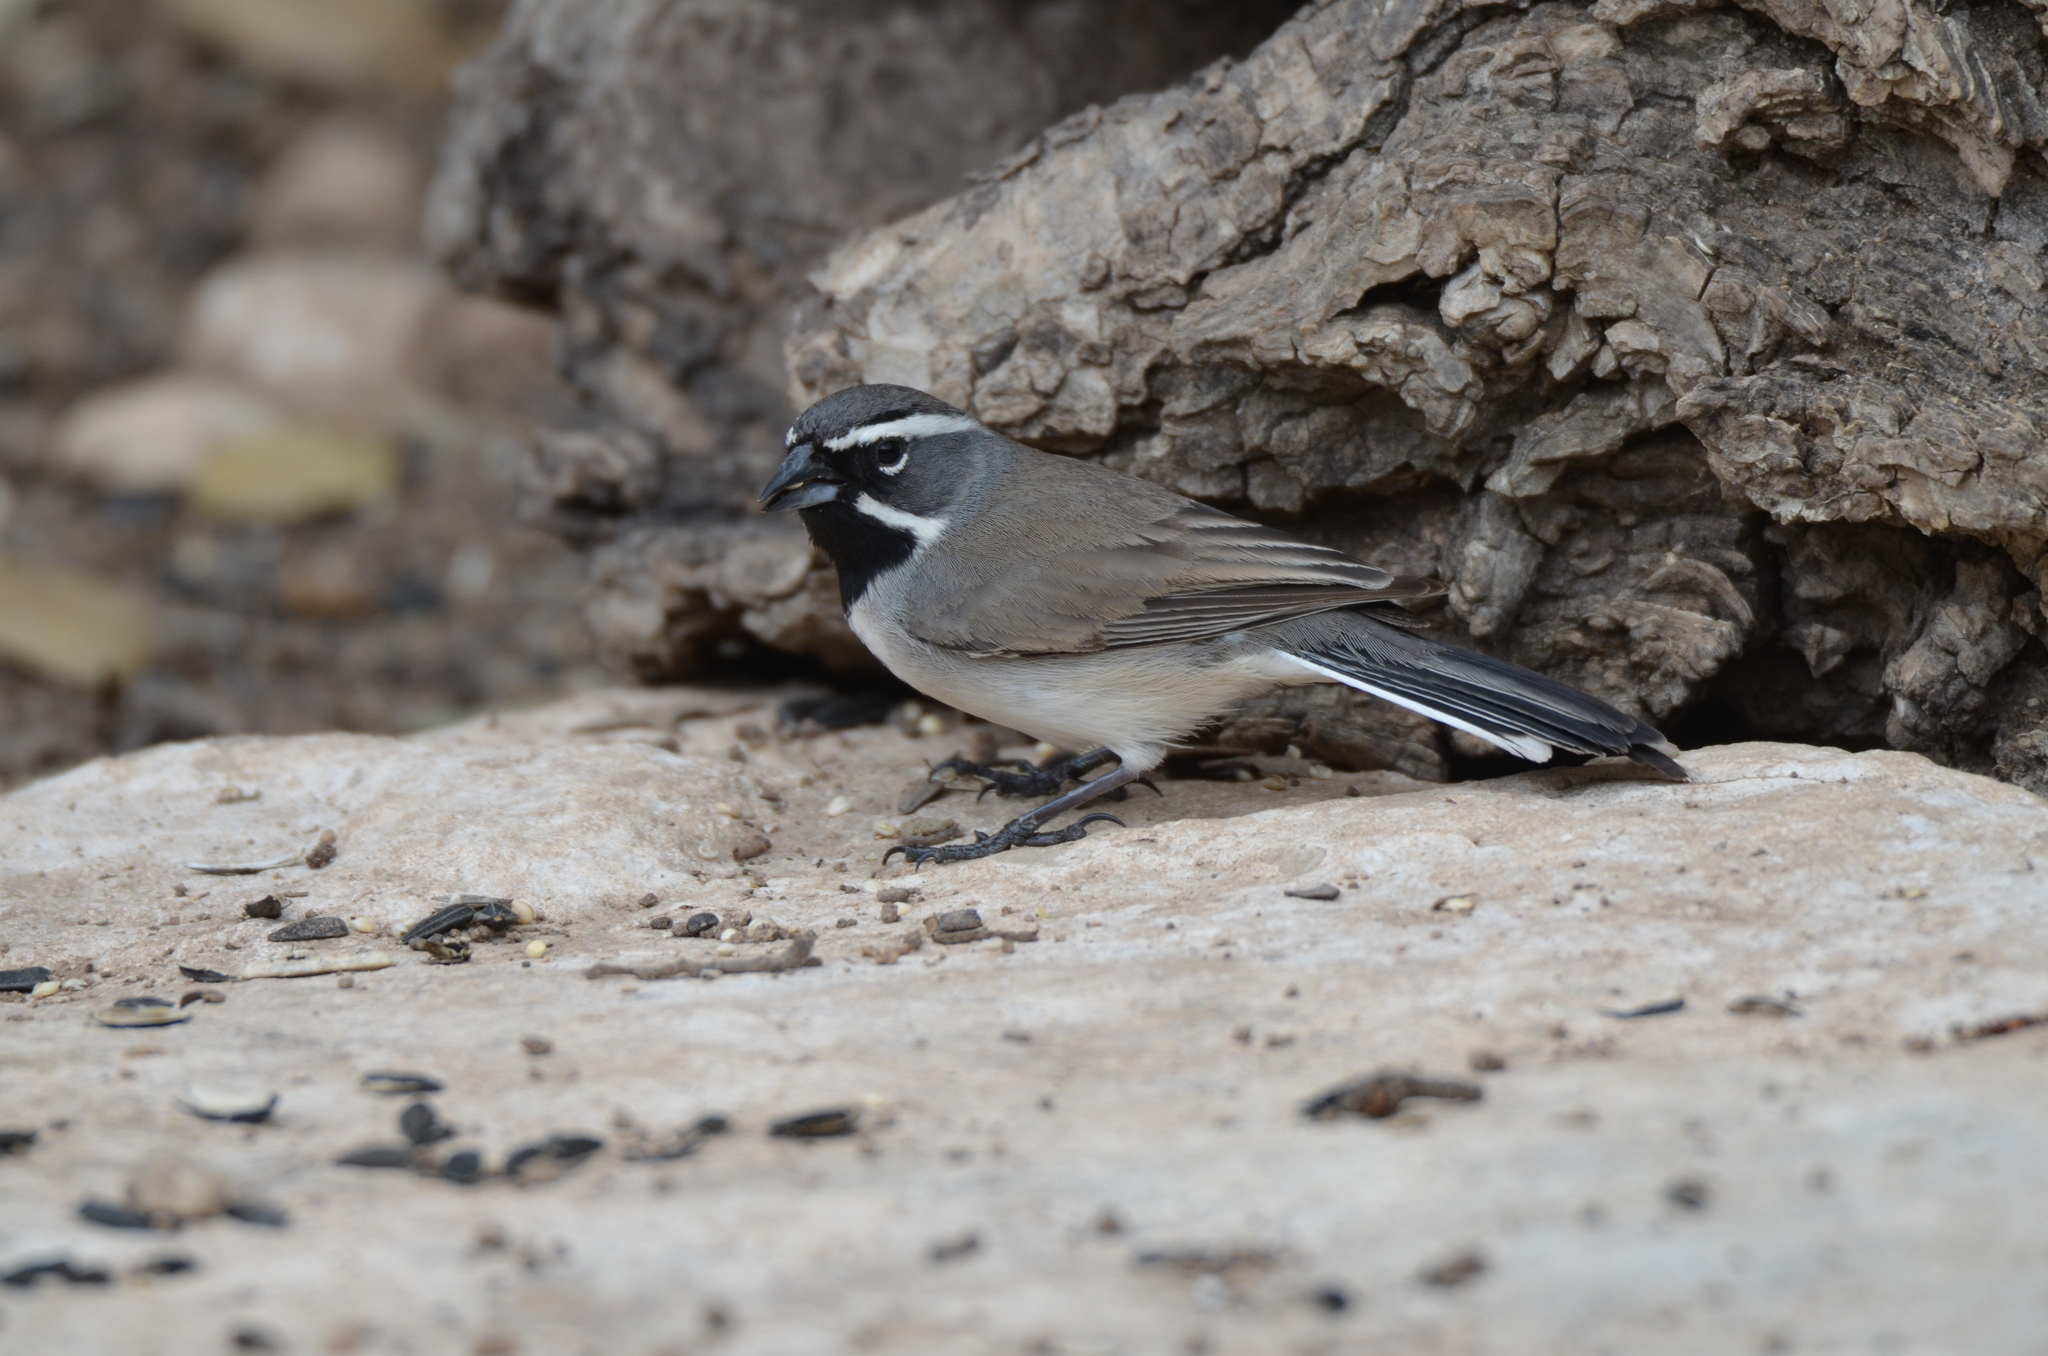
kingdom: Animalia
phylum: Chordata
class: Aves
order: Passeriformes
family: Passerellidae
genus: Amphispiza
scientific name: Amphispiza bilineata
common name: Black-throated sparrow
